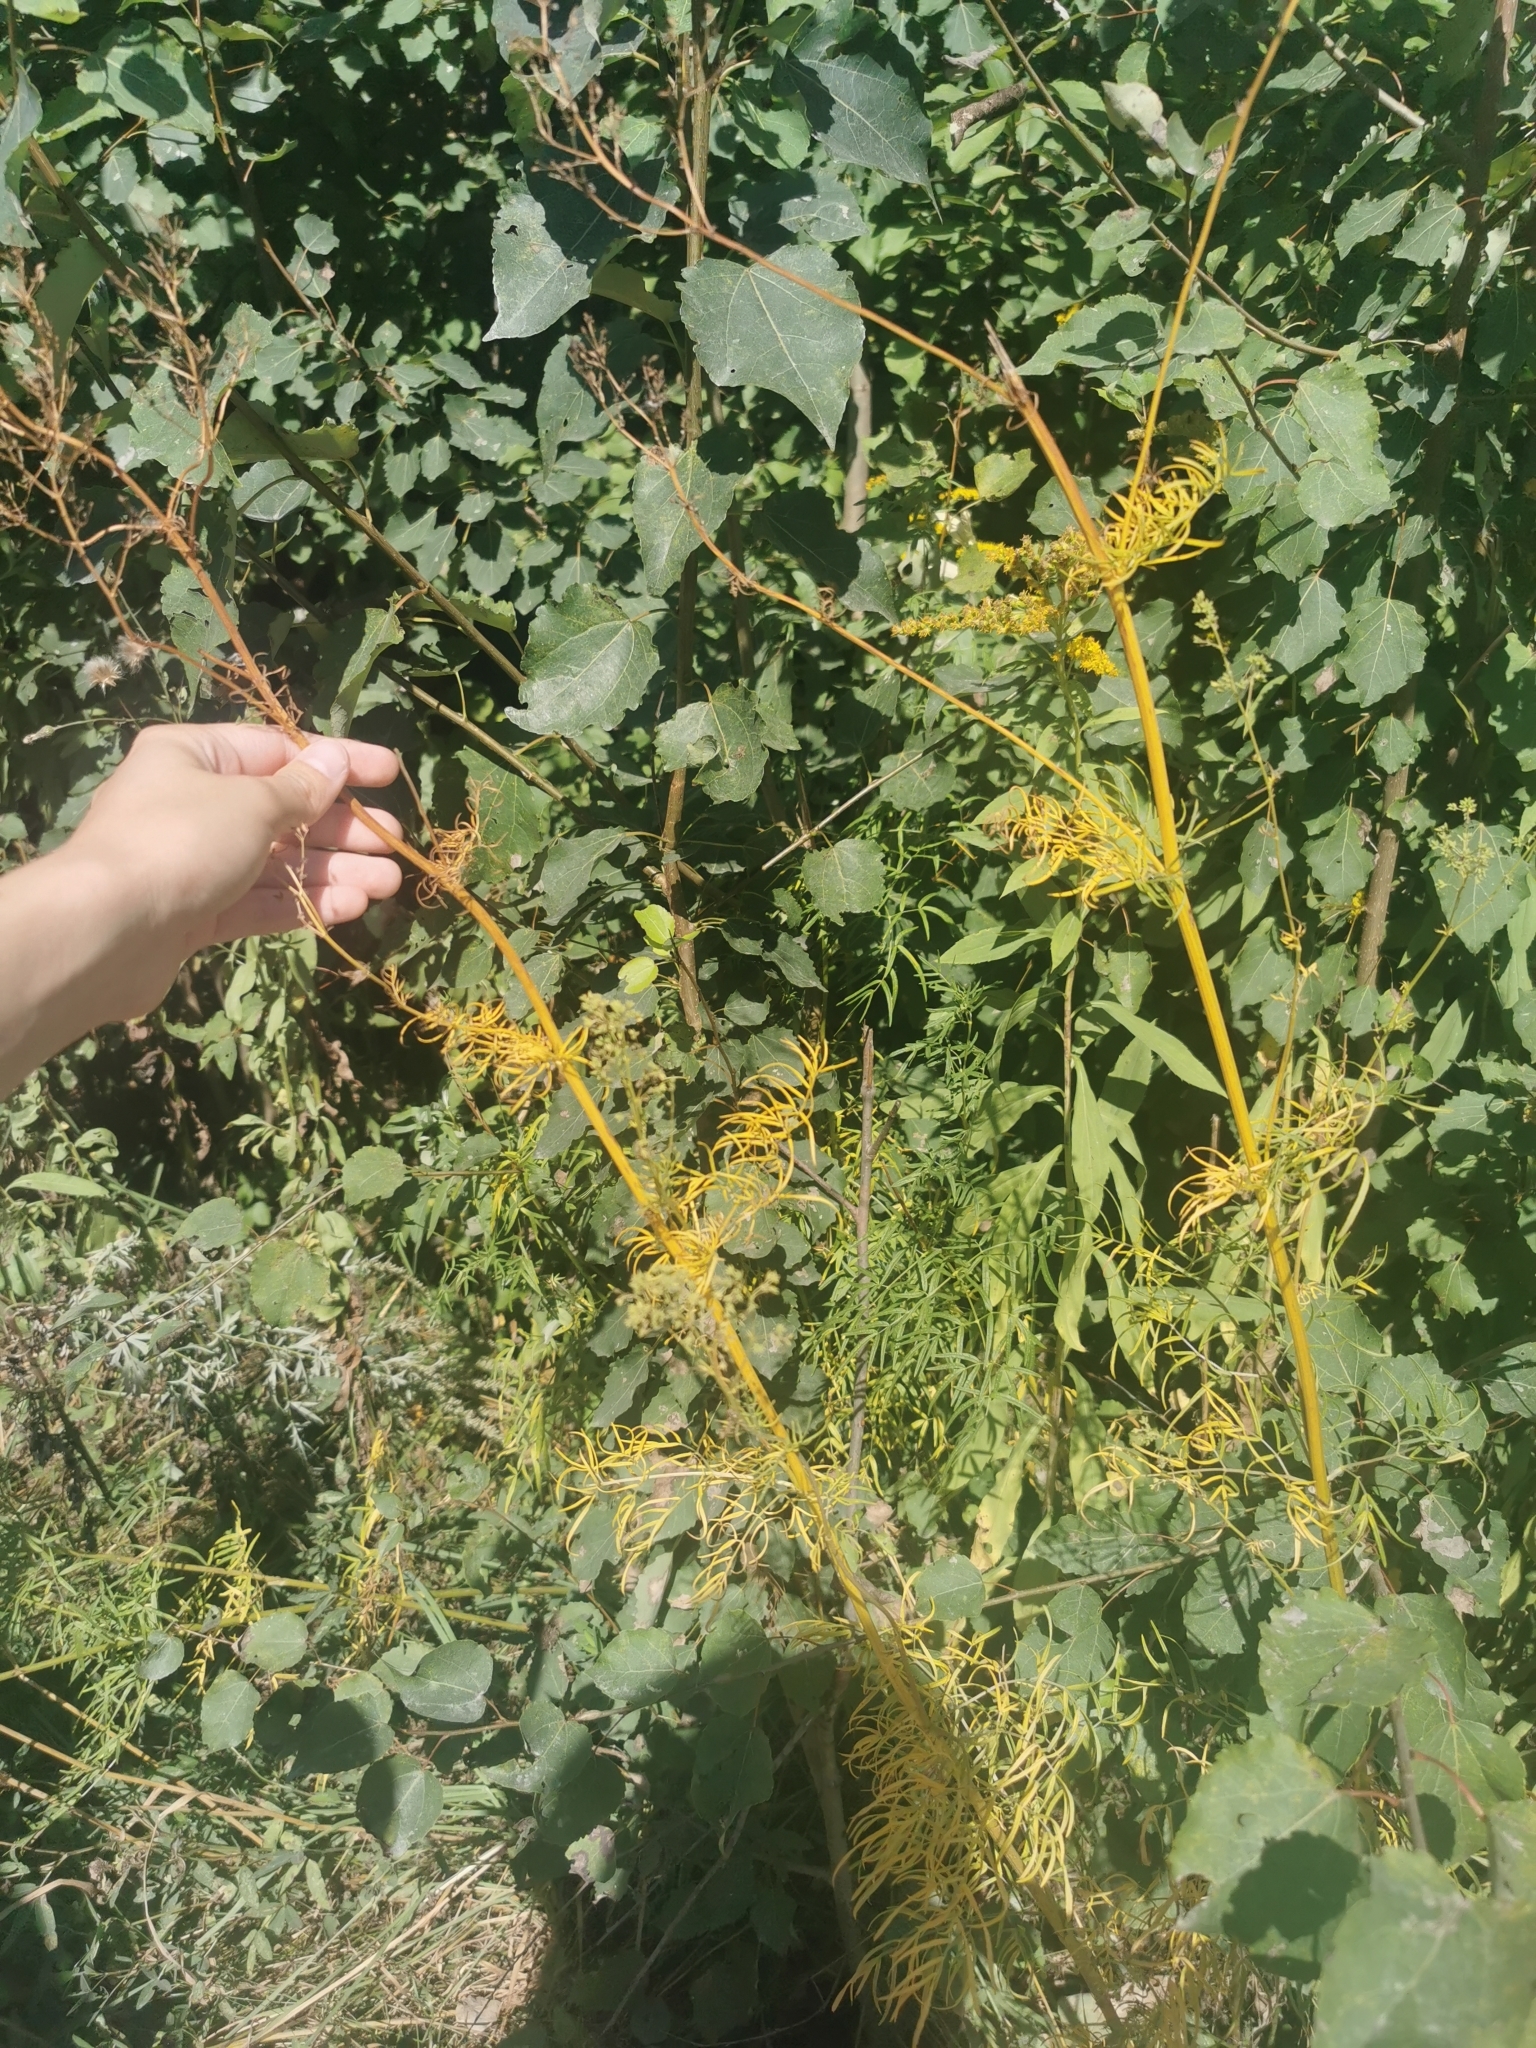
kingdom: Plantae
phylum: Tracheophyta
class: Magnoliopsida
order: Ranunculales
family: Ranunculaceae
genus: Thalictrum
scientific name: Thalictrum lucidum
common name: Shining meadow-rue
